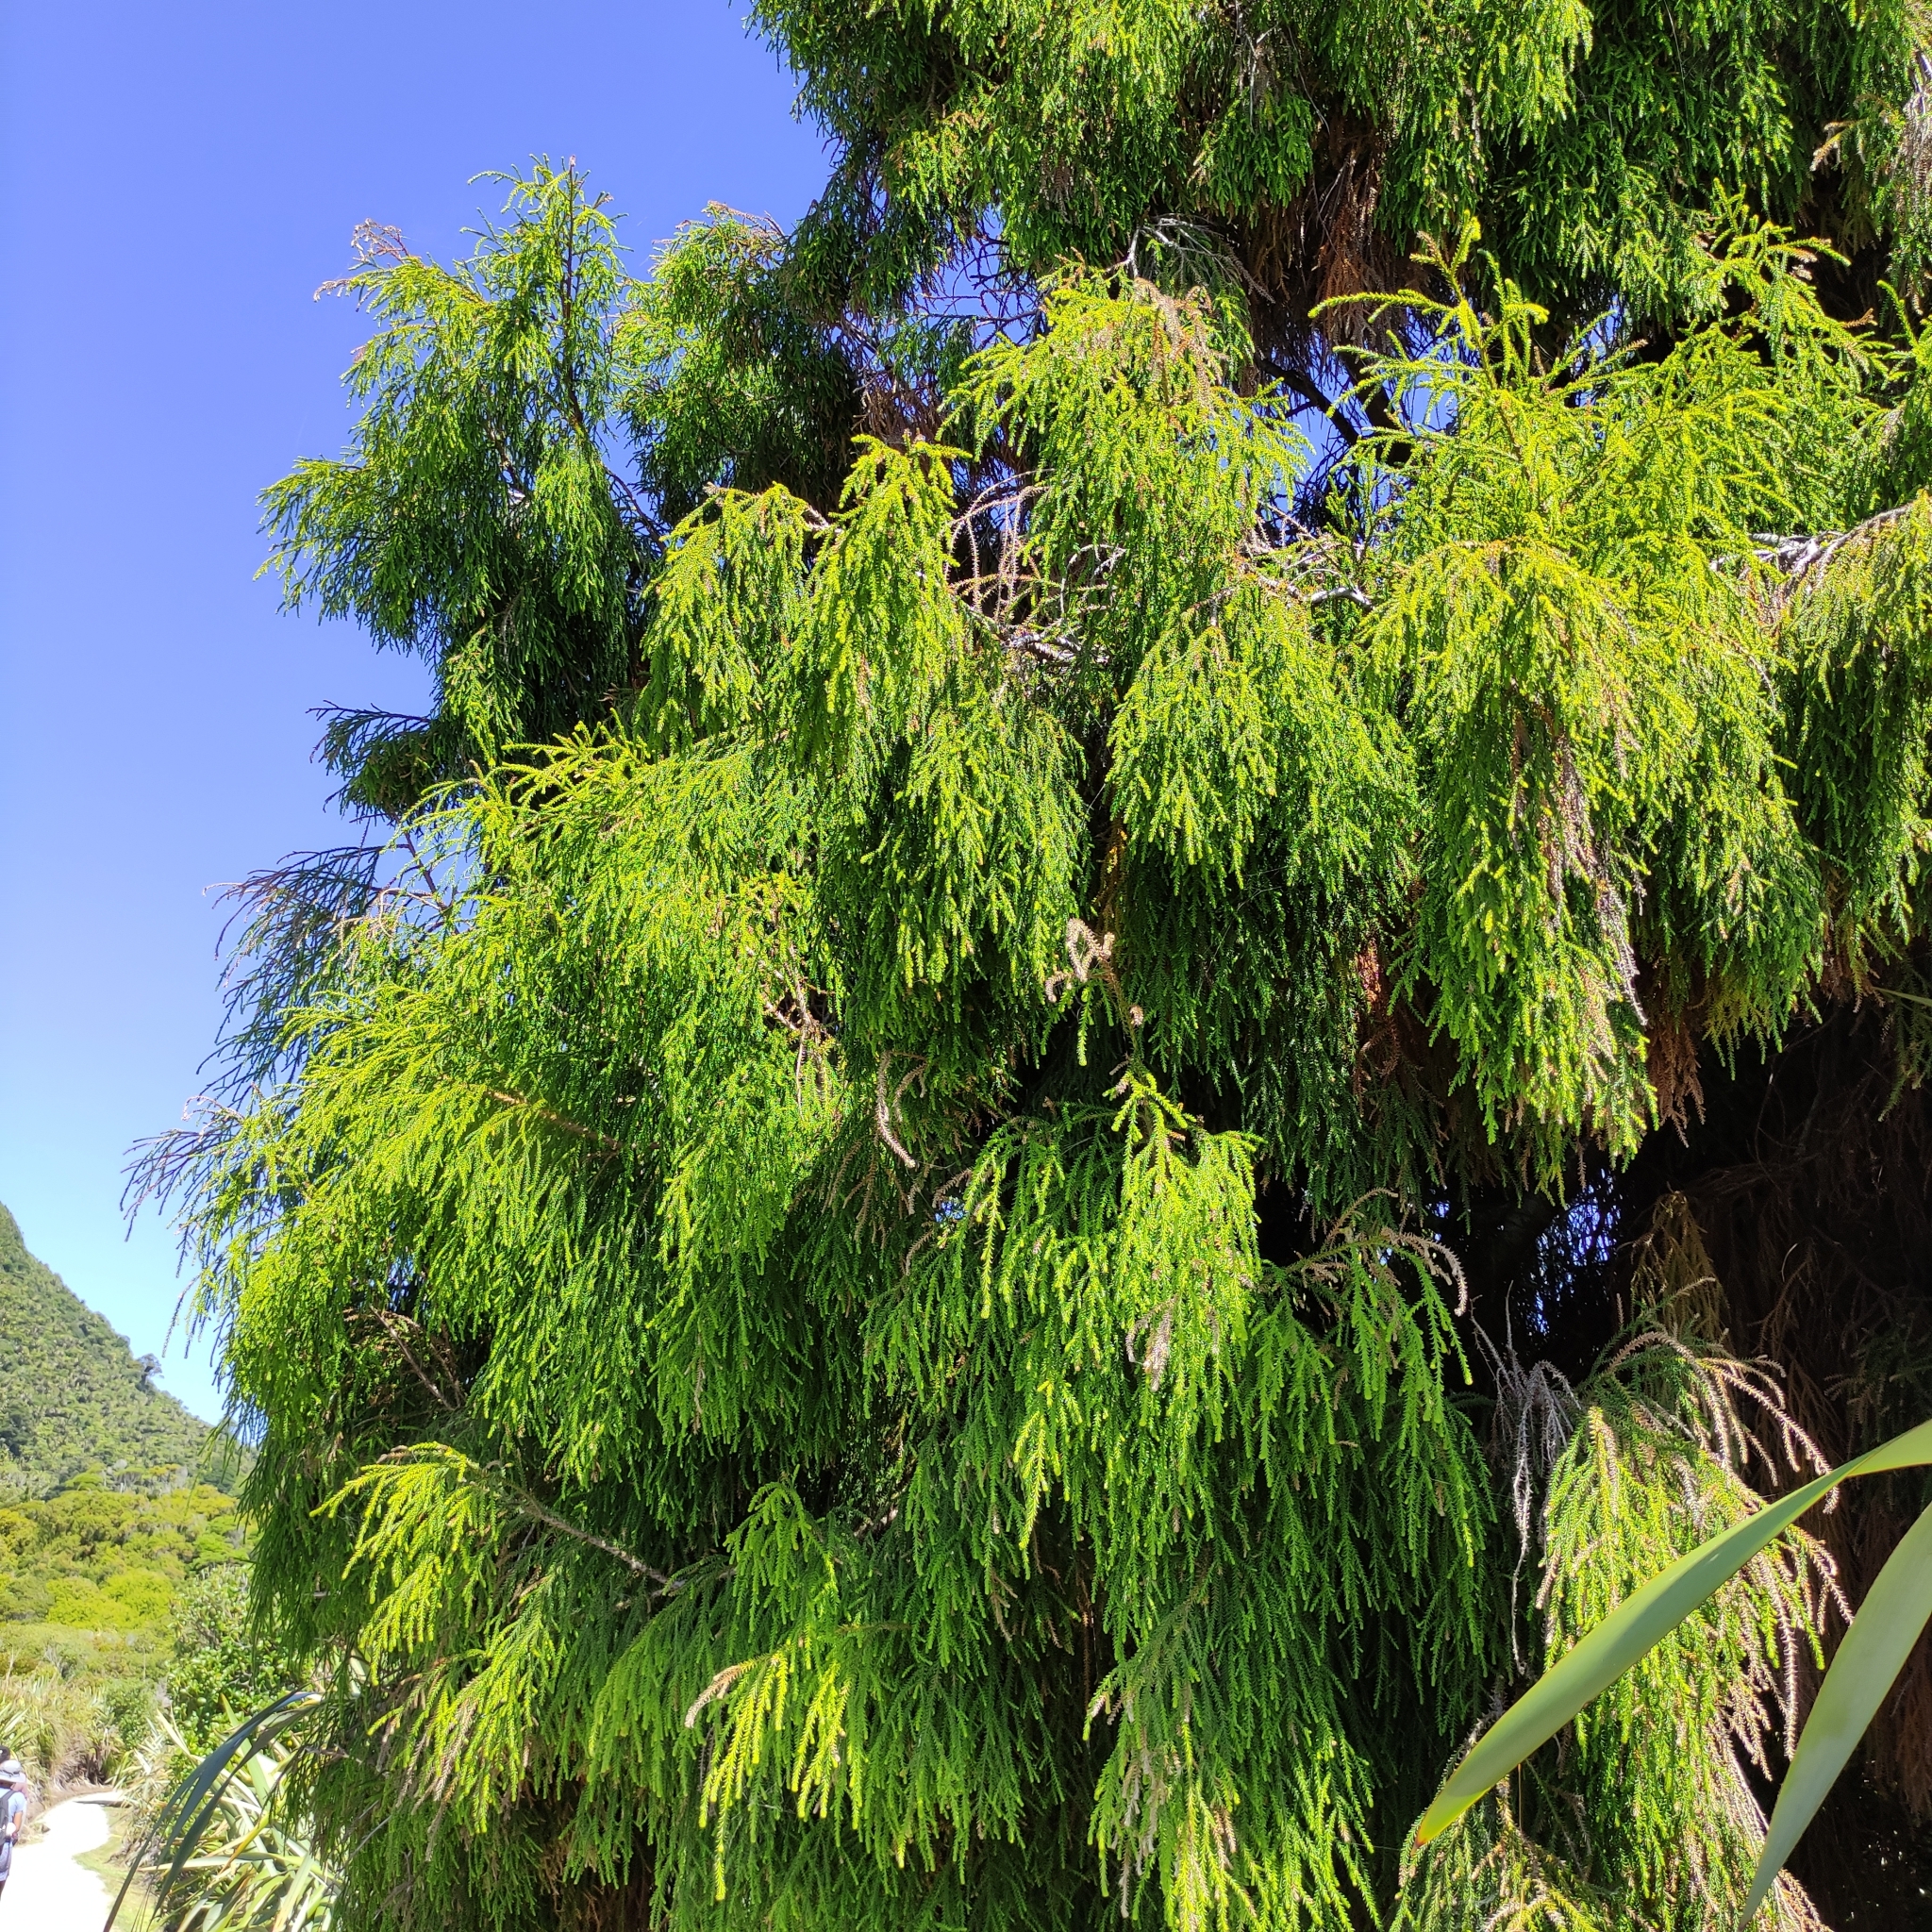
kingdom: Plantae
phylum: Tracheophyta
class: Pinopsida
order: Pinales
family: Podocarpaceae
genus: Dacrydium
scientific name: Dacrydium cupressinum
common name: Red pine
